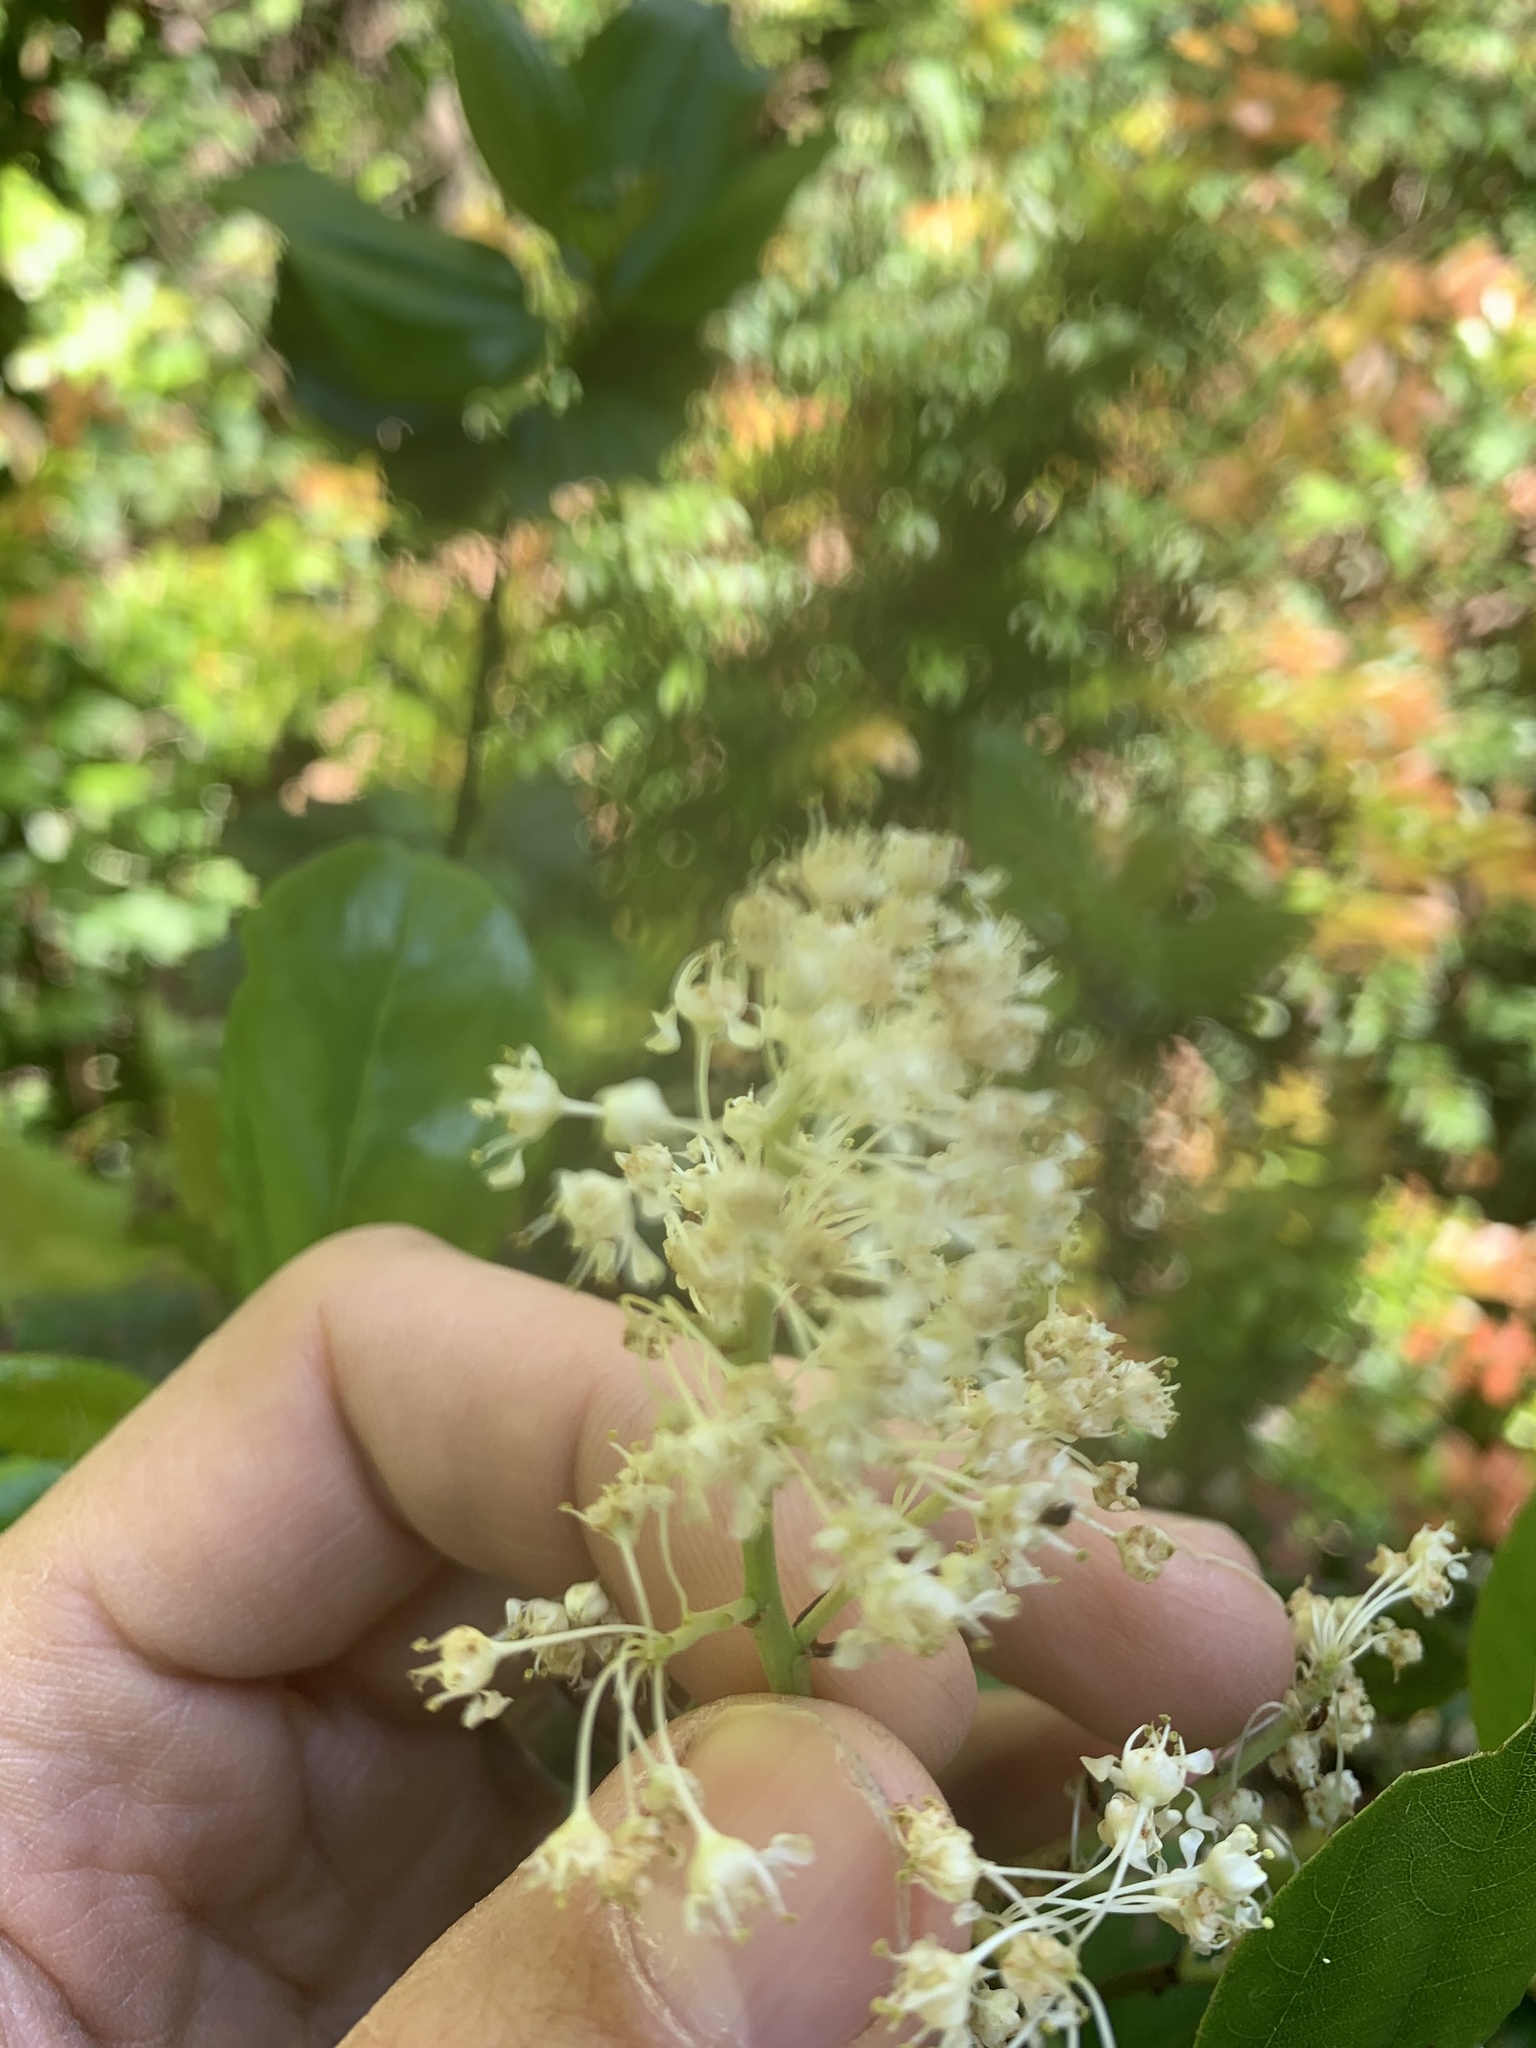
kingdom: Plantae
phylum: Tracheophyta
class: Magnoliopsida
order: Rosales
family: Rhamnaceae
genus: Ceanothus
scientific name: Ceanothus velutinus
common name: Snowbrush
